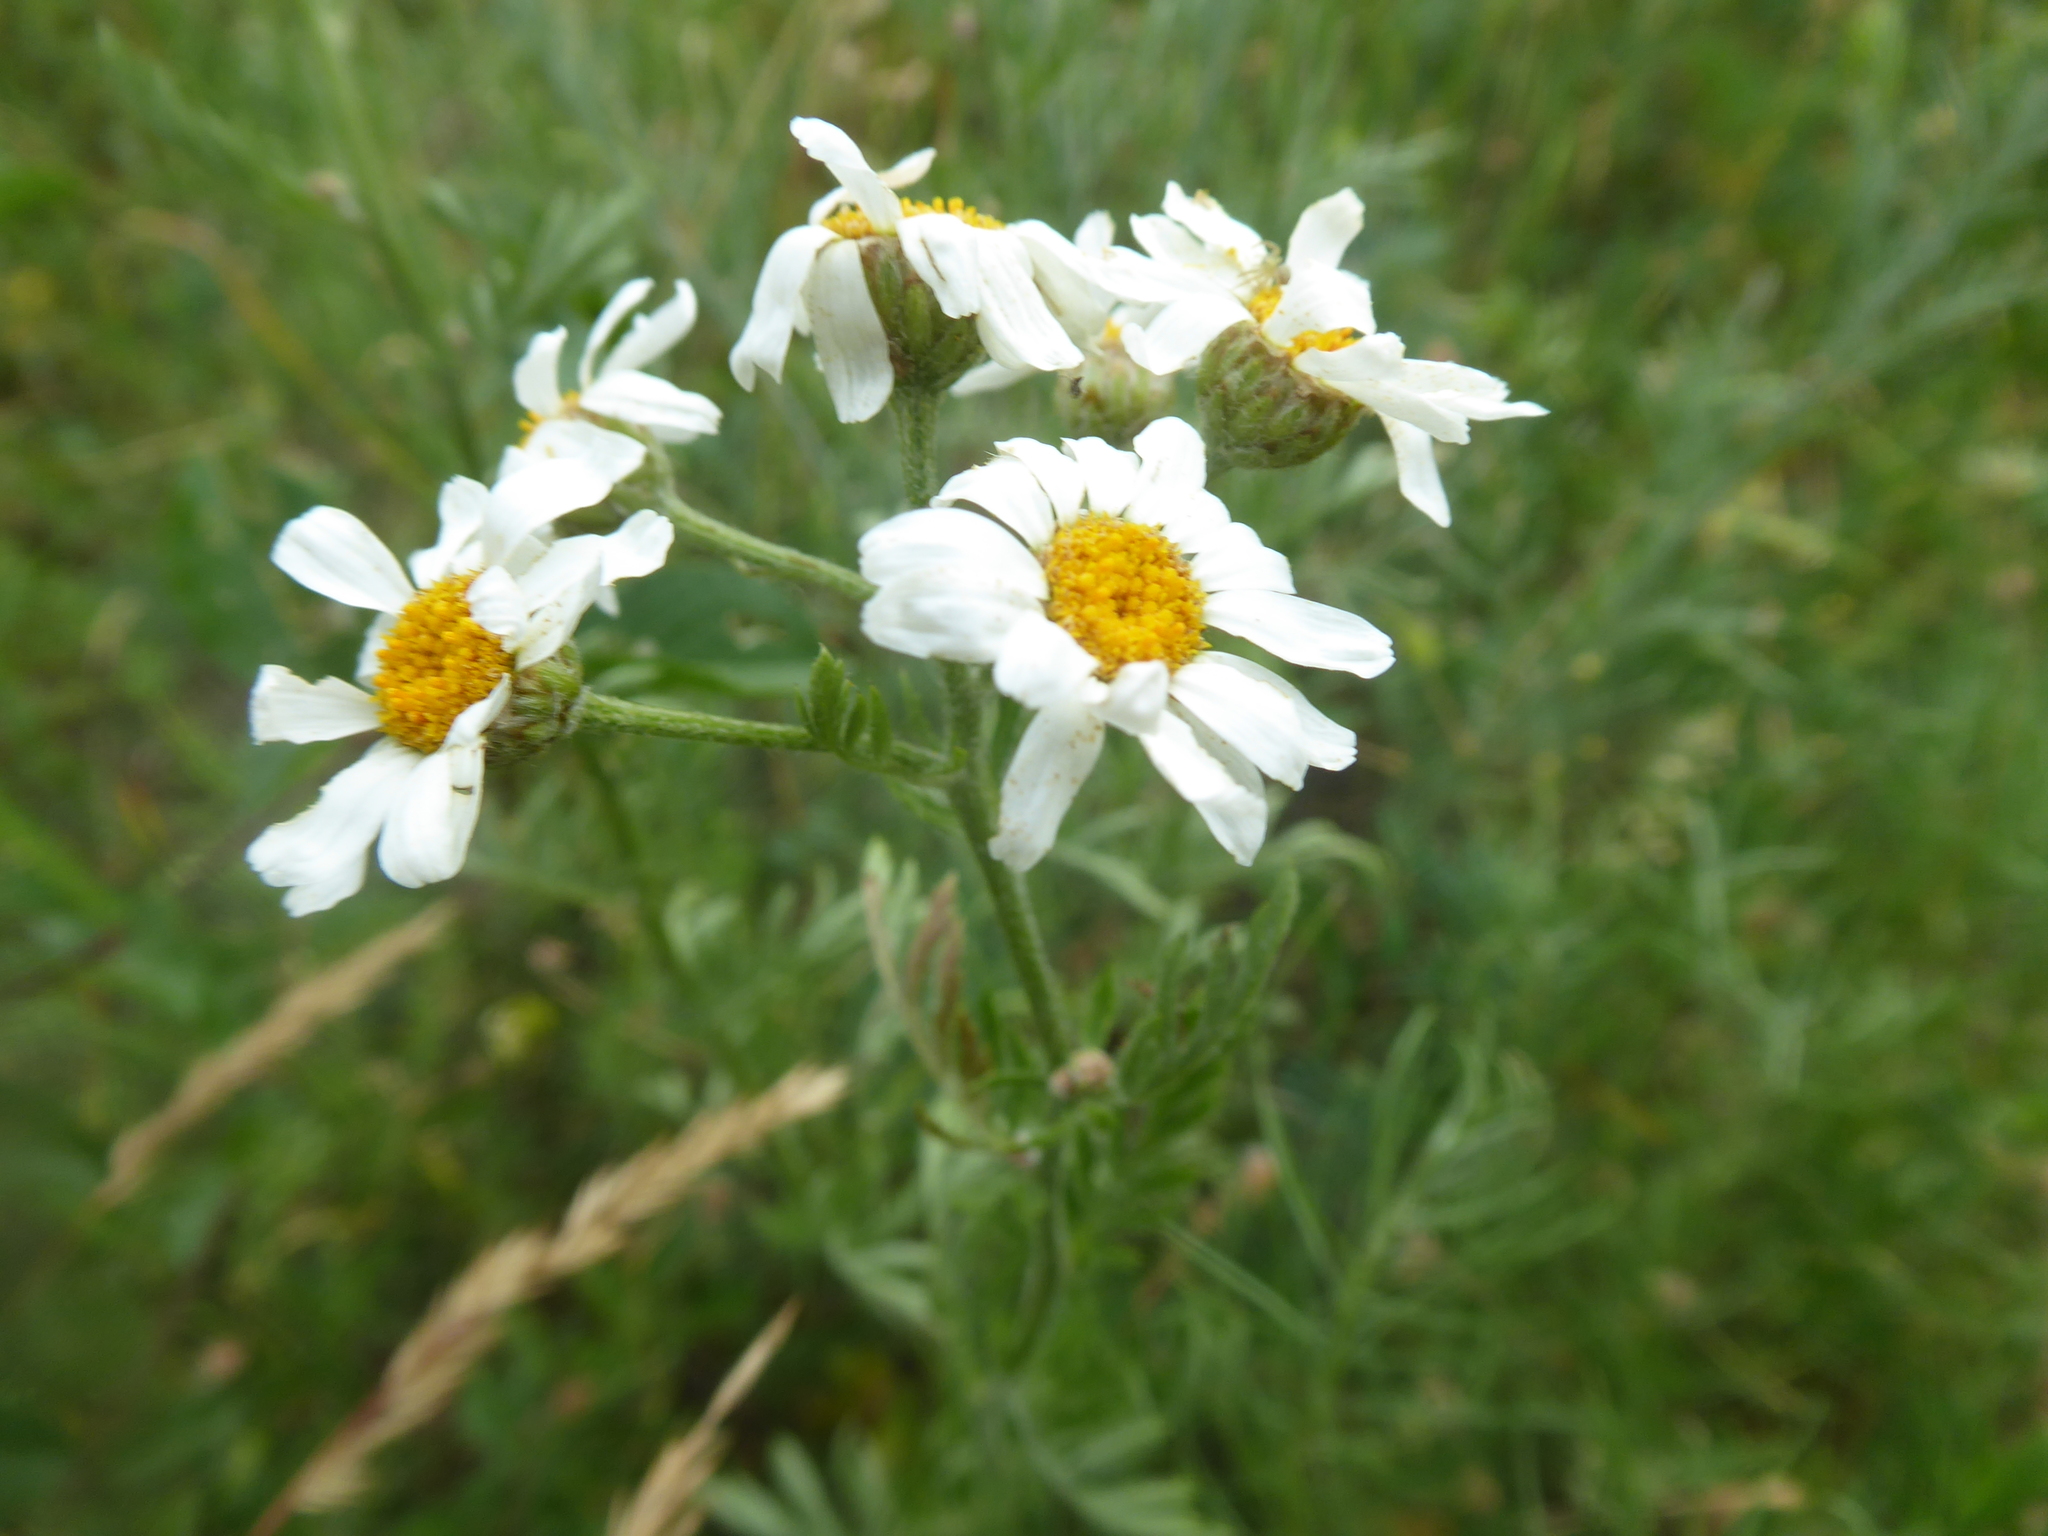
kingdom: Plantae
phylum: Tracheophyta
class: Magnoliopsida
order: Asterales
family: Asteraceae
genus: Tanacetum
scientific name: Tanacetum corymbosum
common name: Scentless feverfew
